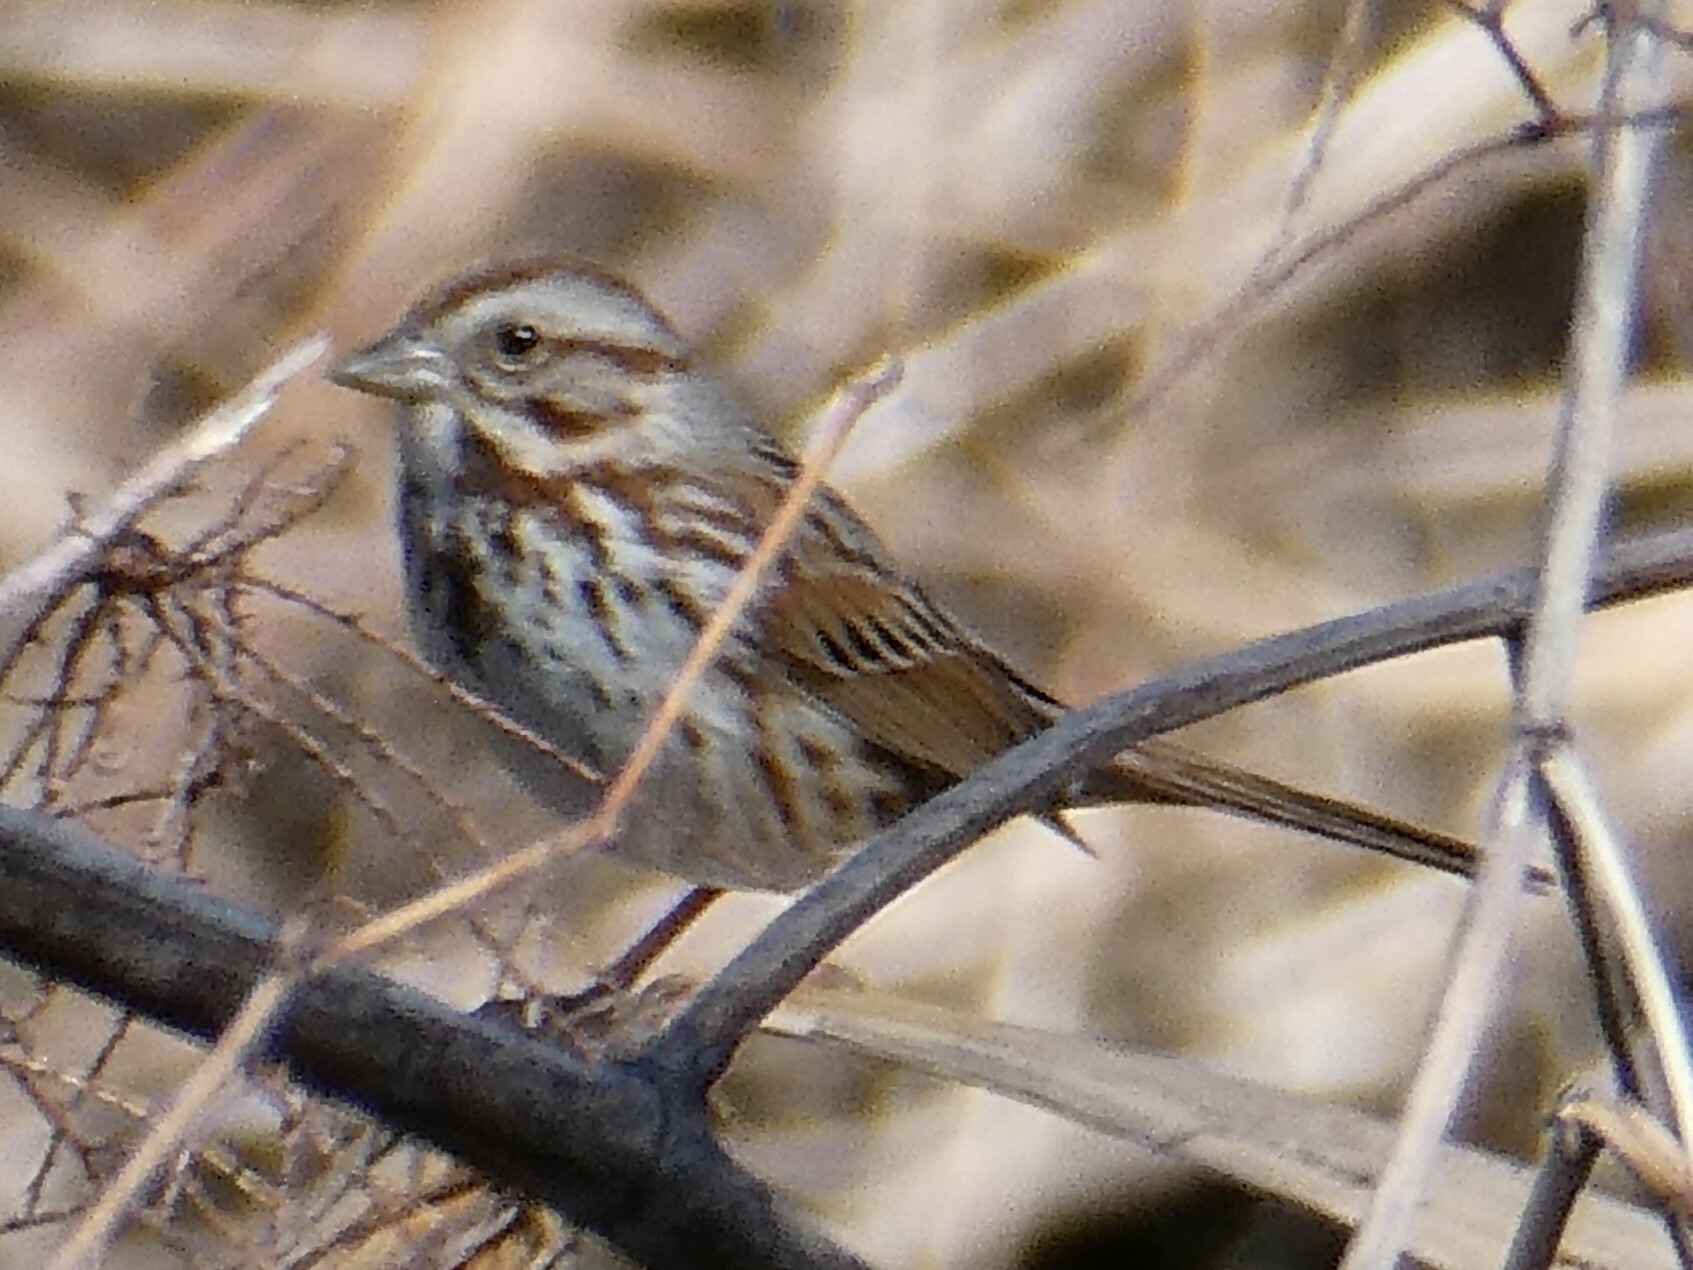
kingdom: Animalia
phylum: Chordata
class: Aves
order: Passeriformes
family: Passerellidae
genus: Melospiza
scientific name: Melospiza melodia
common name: Song sparrow
